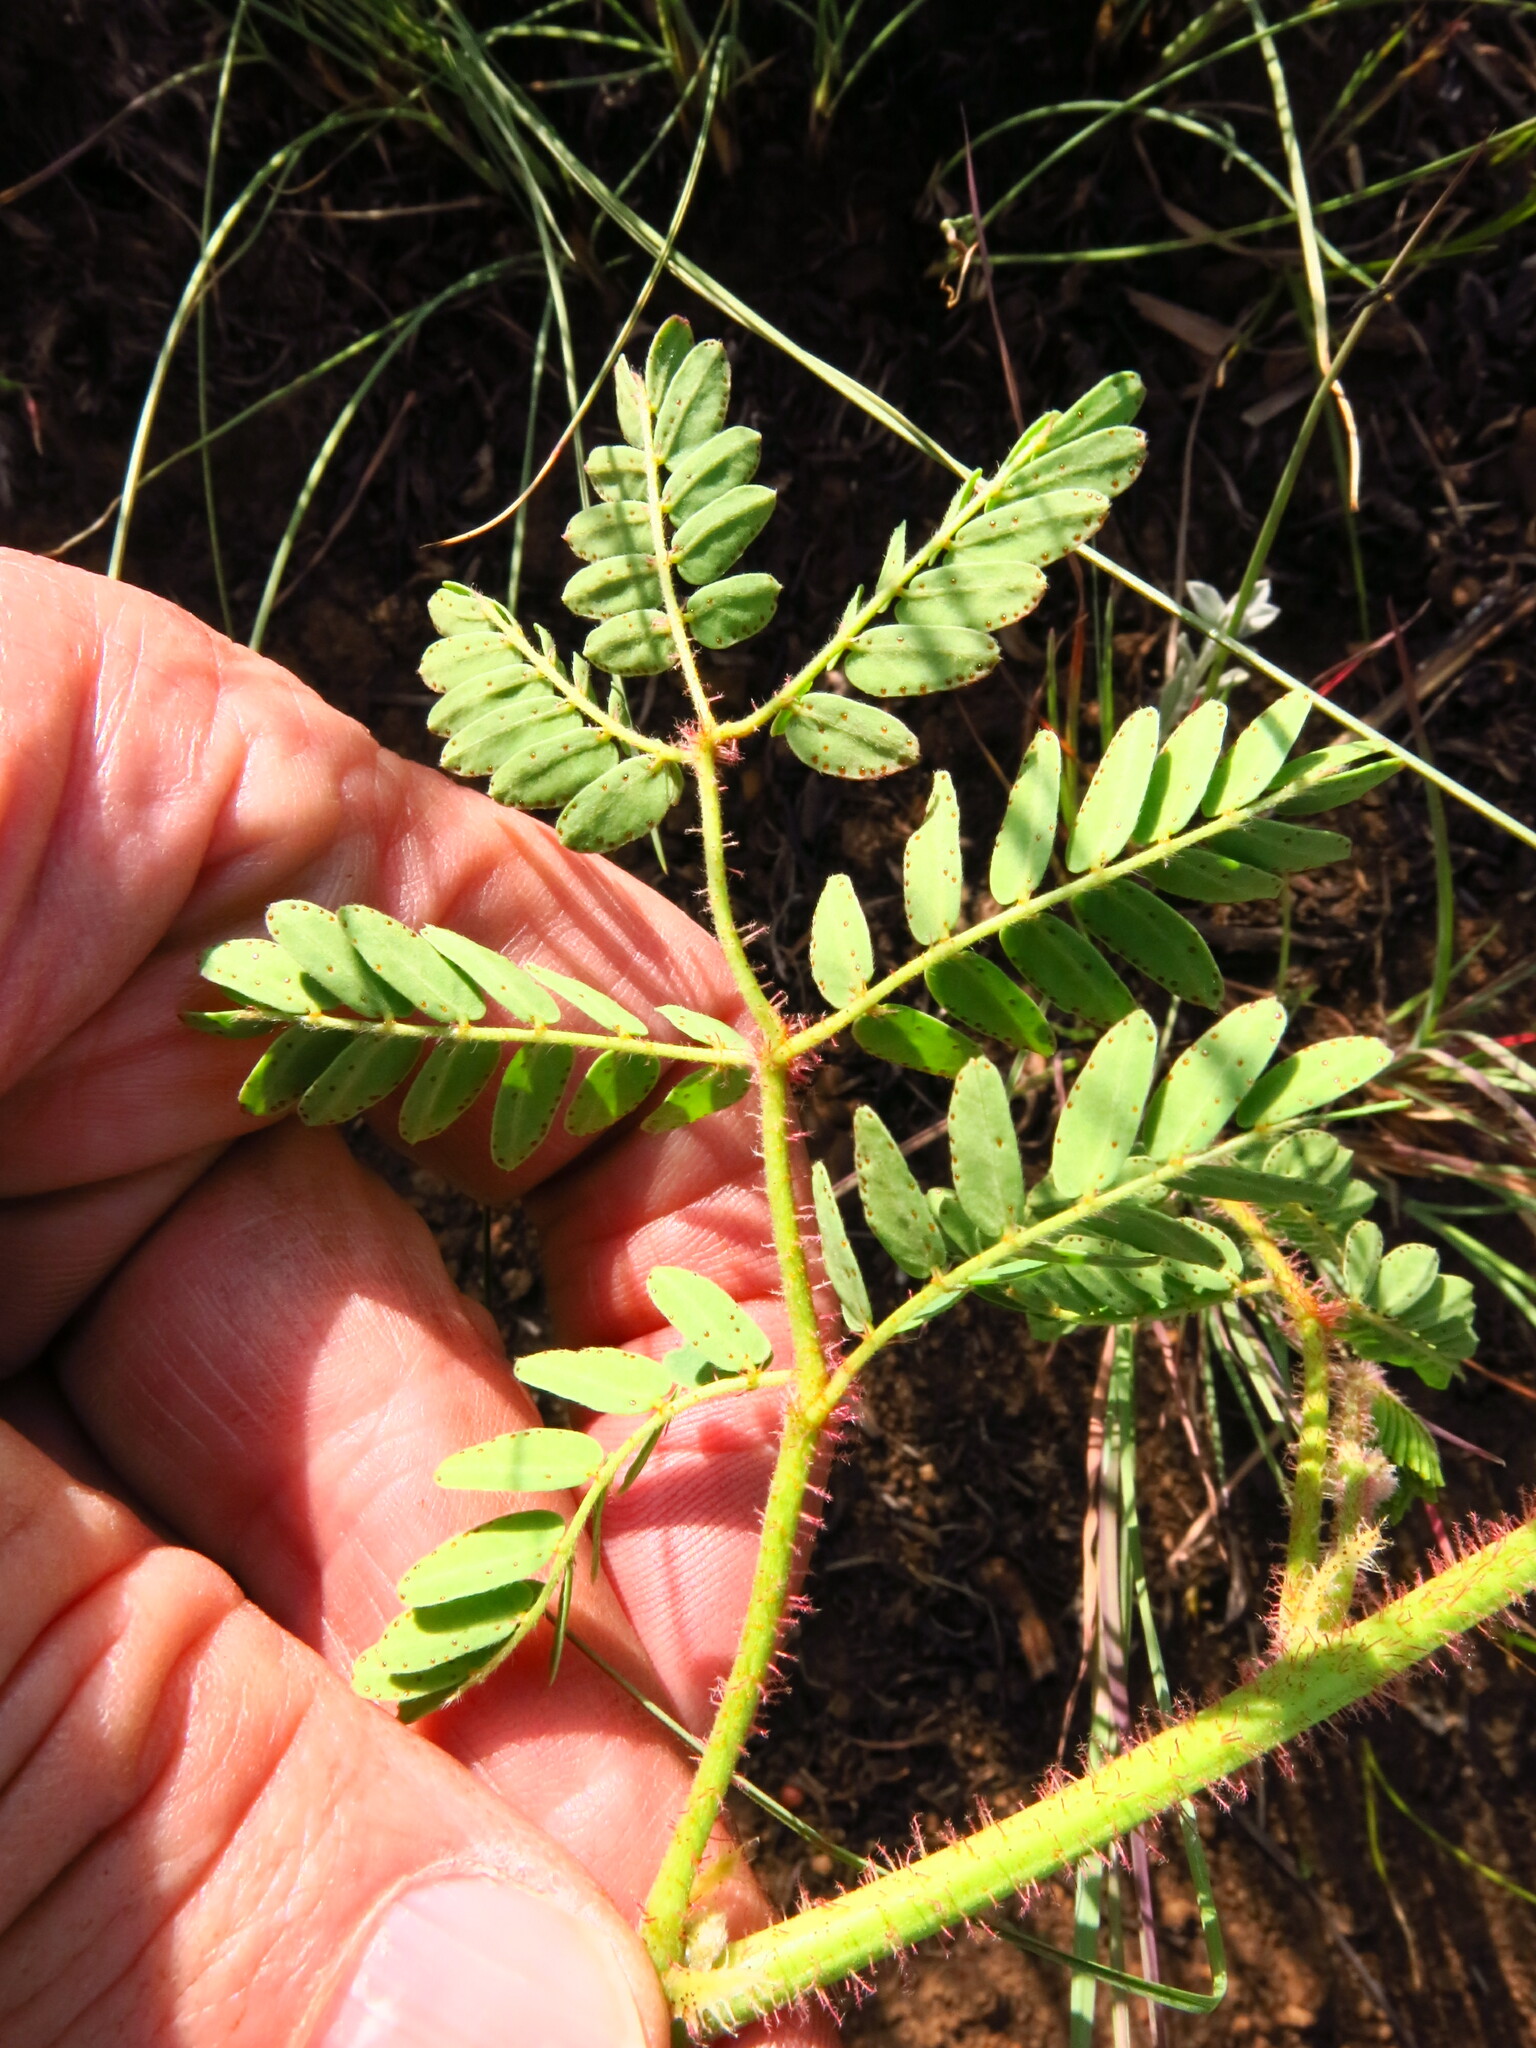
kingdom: Plantae
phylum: Tracheophyta
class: Magnoliopsida
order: Fabales
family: Fabaceae
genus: Pomaria
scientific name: Pomaria sandersonii
